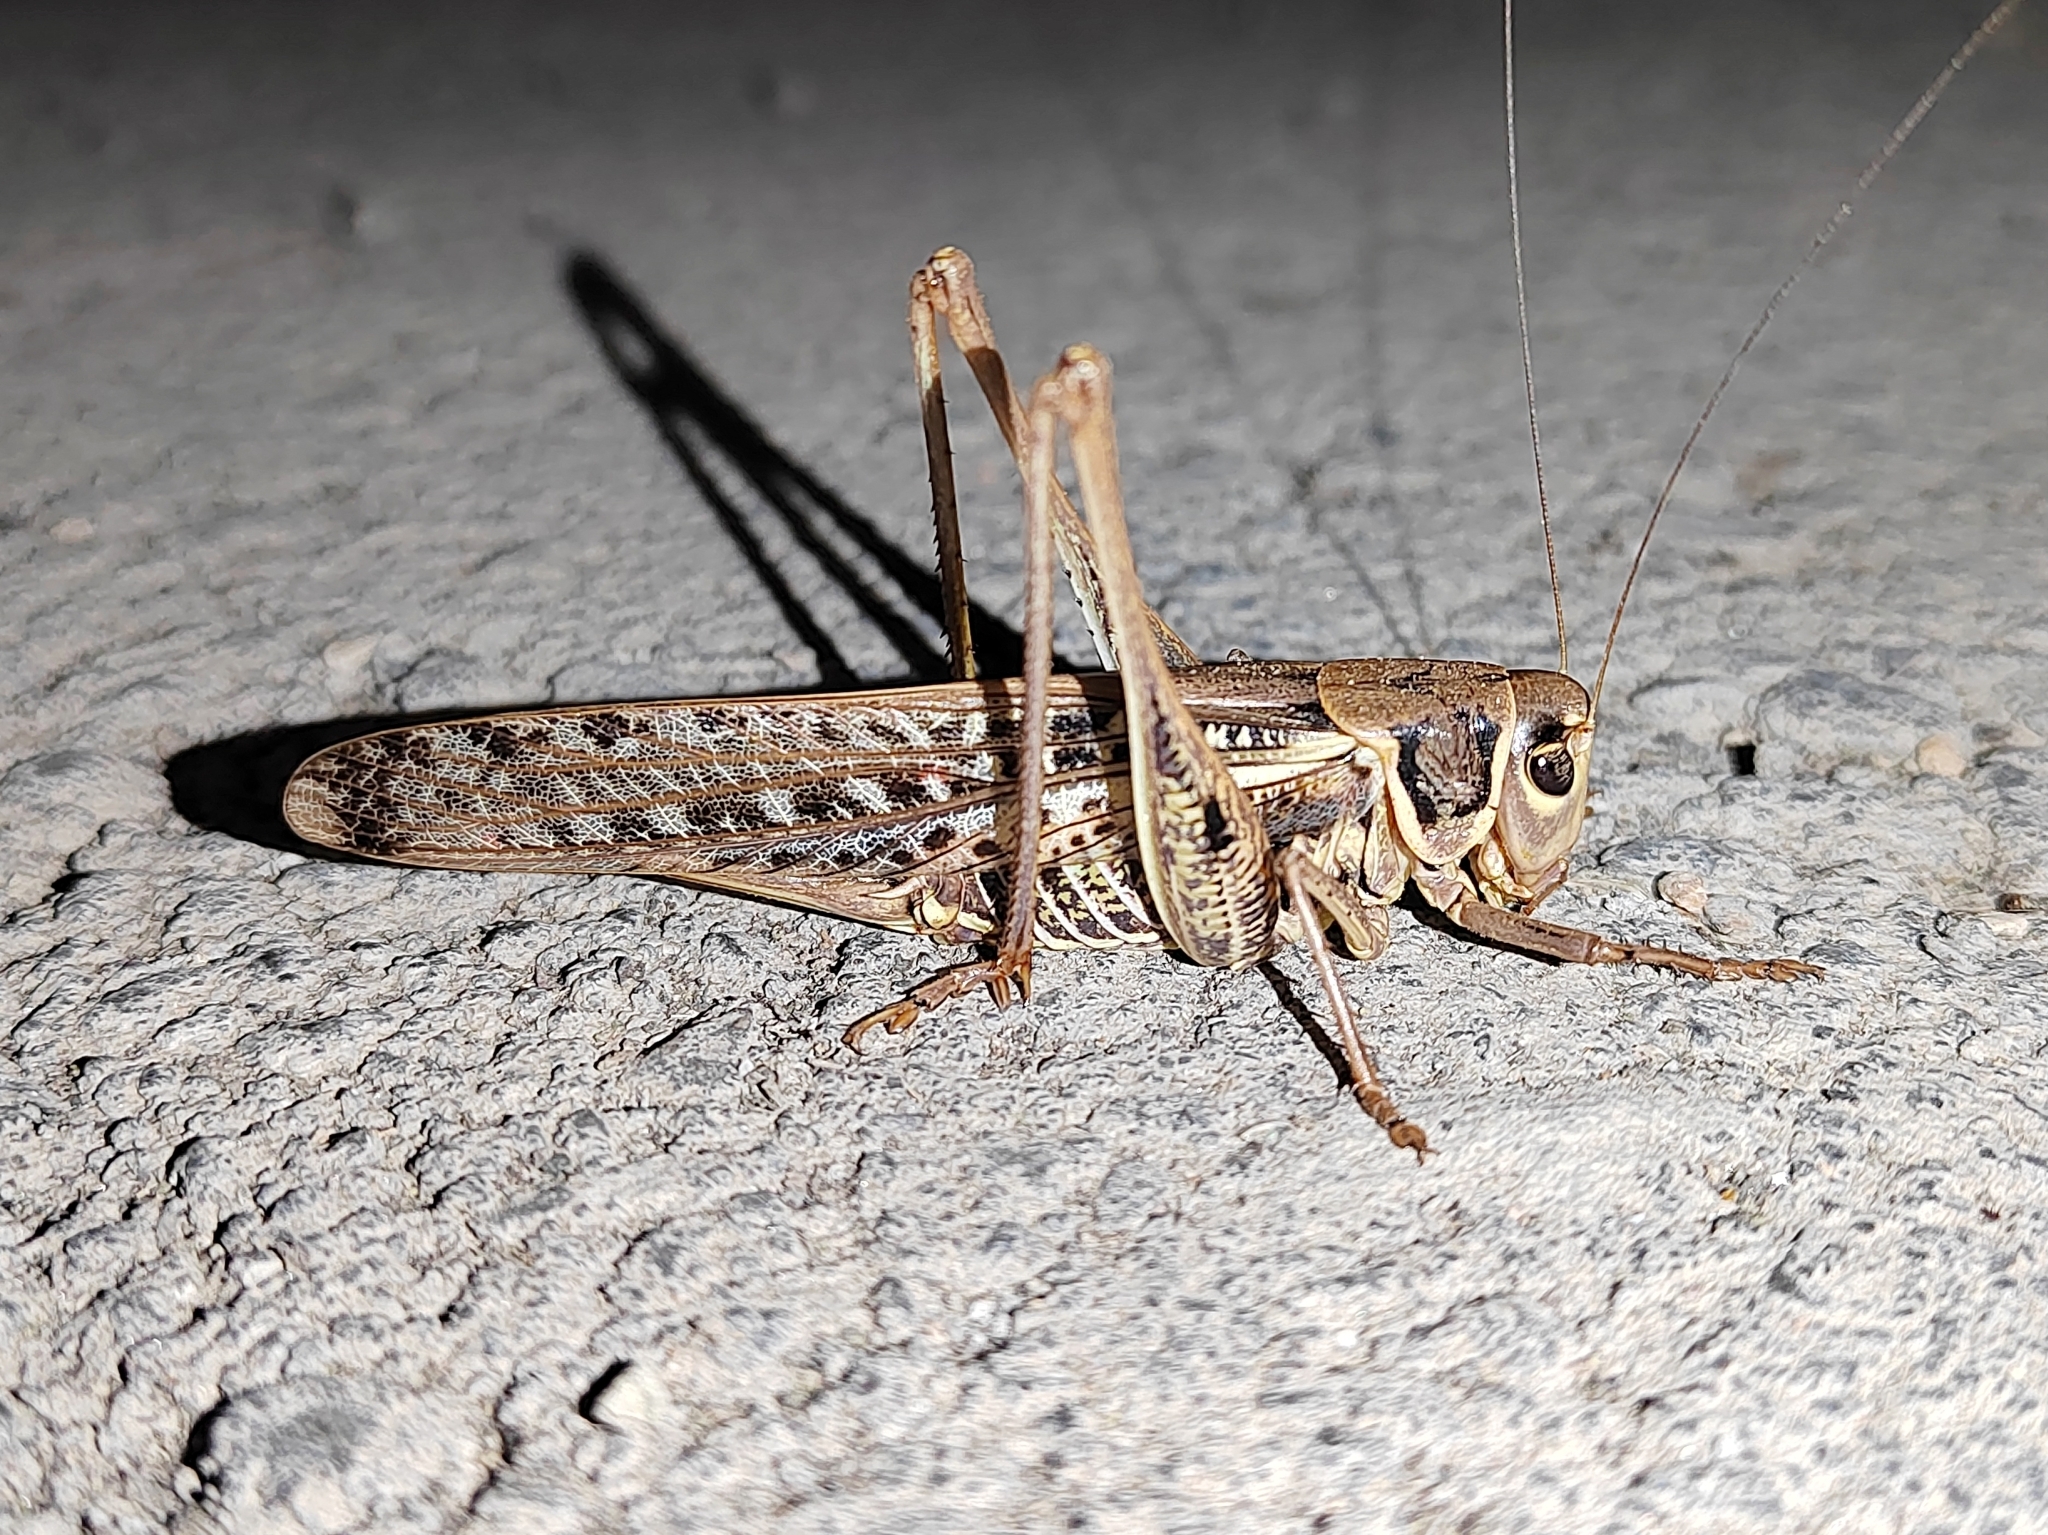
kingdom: Animalia
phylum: Arthropoda
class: Insecta
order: Orthoptera
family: Tettigoniidae
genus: Decticus
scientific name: Decticus albifrons
